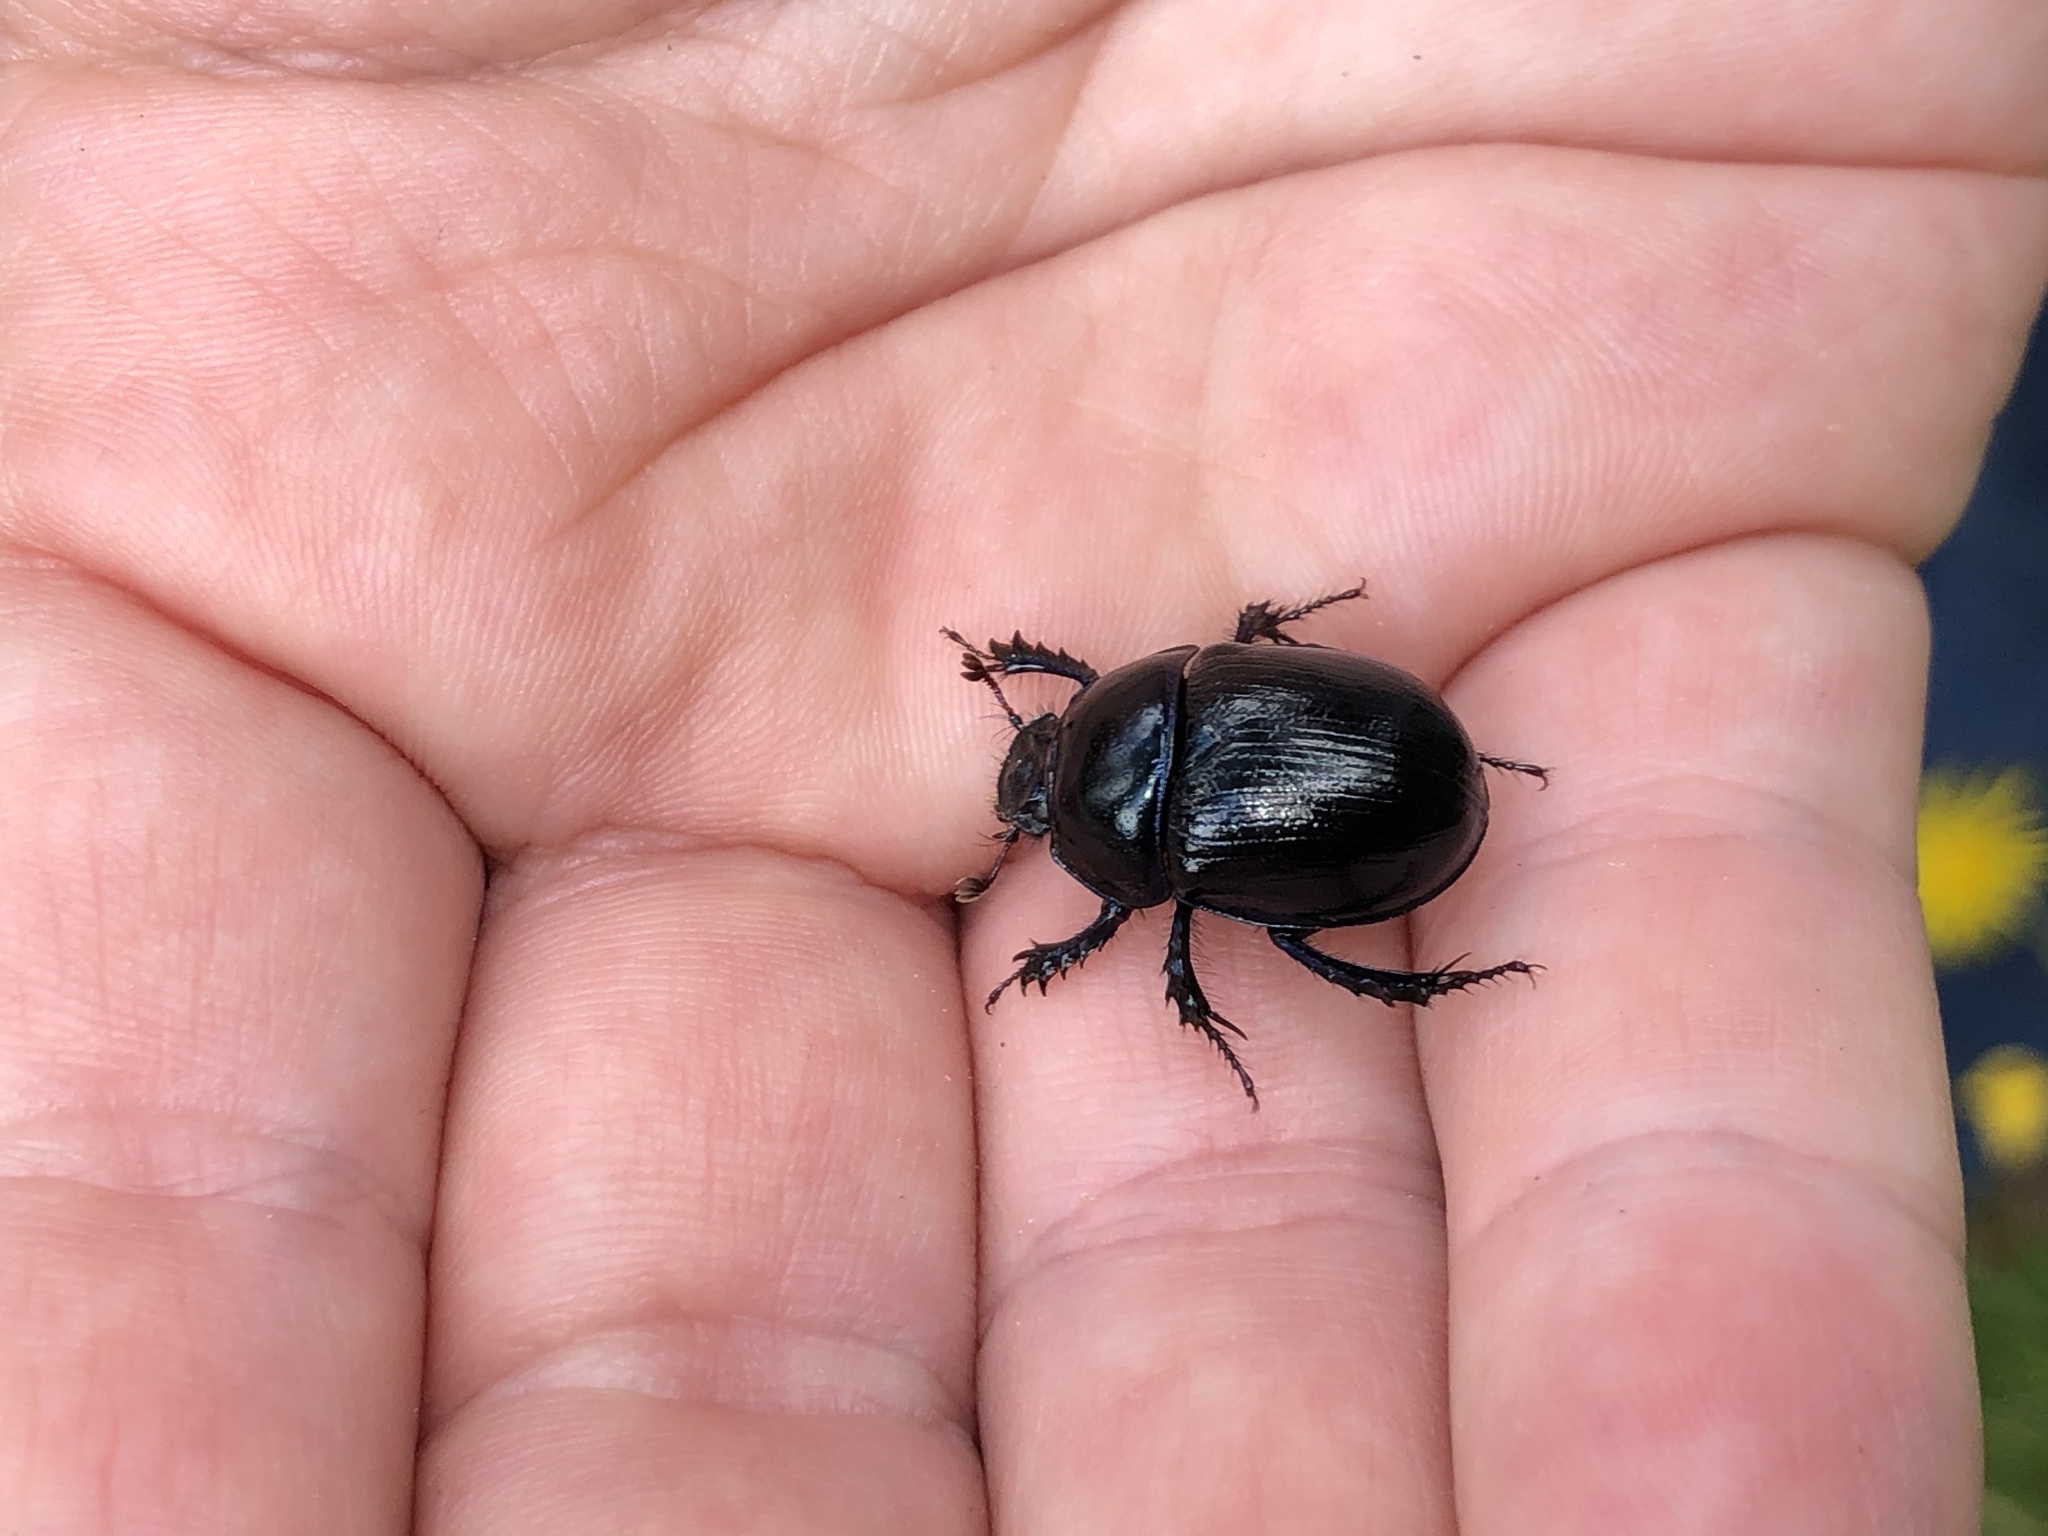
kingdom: Animalia
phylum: Arthropoda
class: Insecta
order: Coleoptera
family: Geotrupidae
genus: Anoplotrupes
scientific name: Anoplotrupes stercorosus
